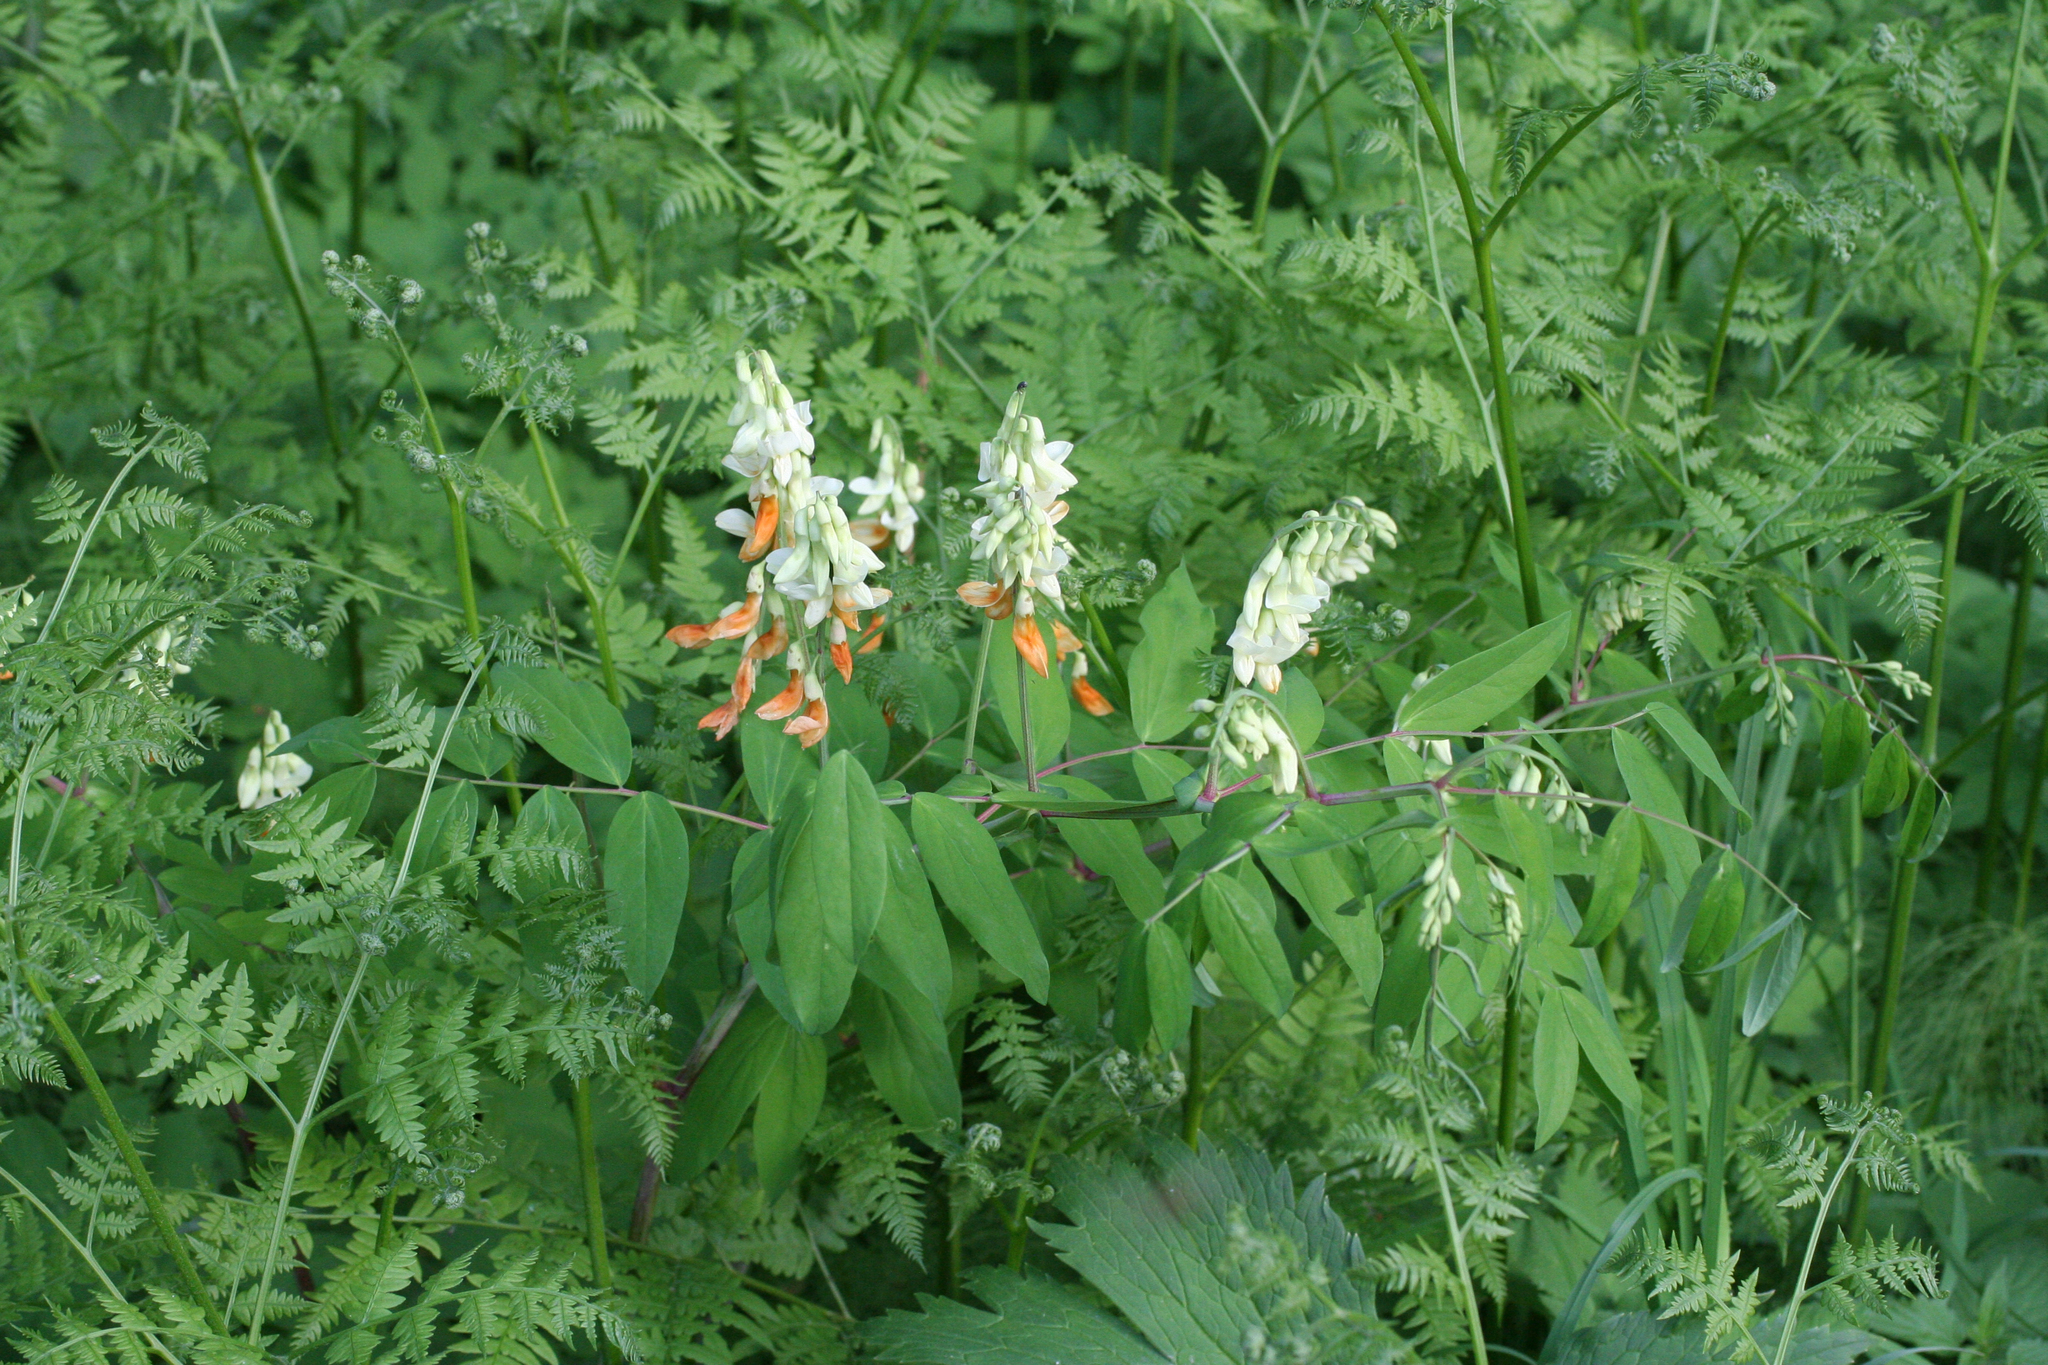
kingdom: Plantae
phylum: Tracheophyta
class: Magnoliopsida
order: Fabales
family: Fabaceae
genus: Lathyrus
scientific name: Lathyrus gmelinii
